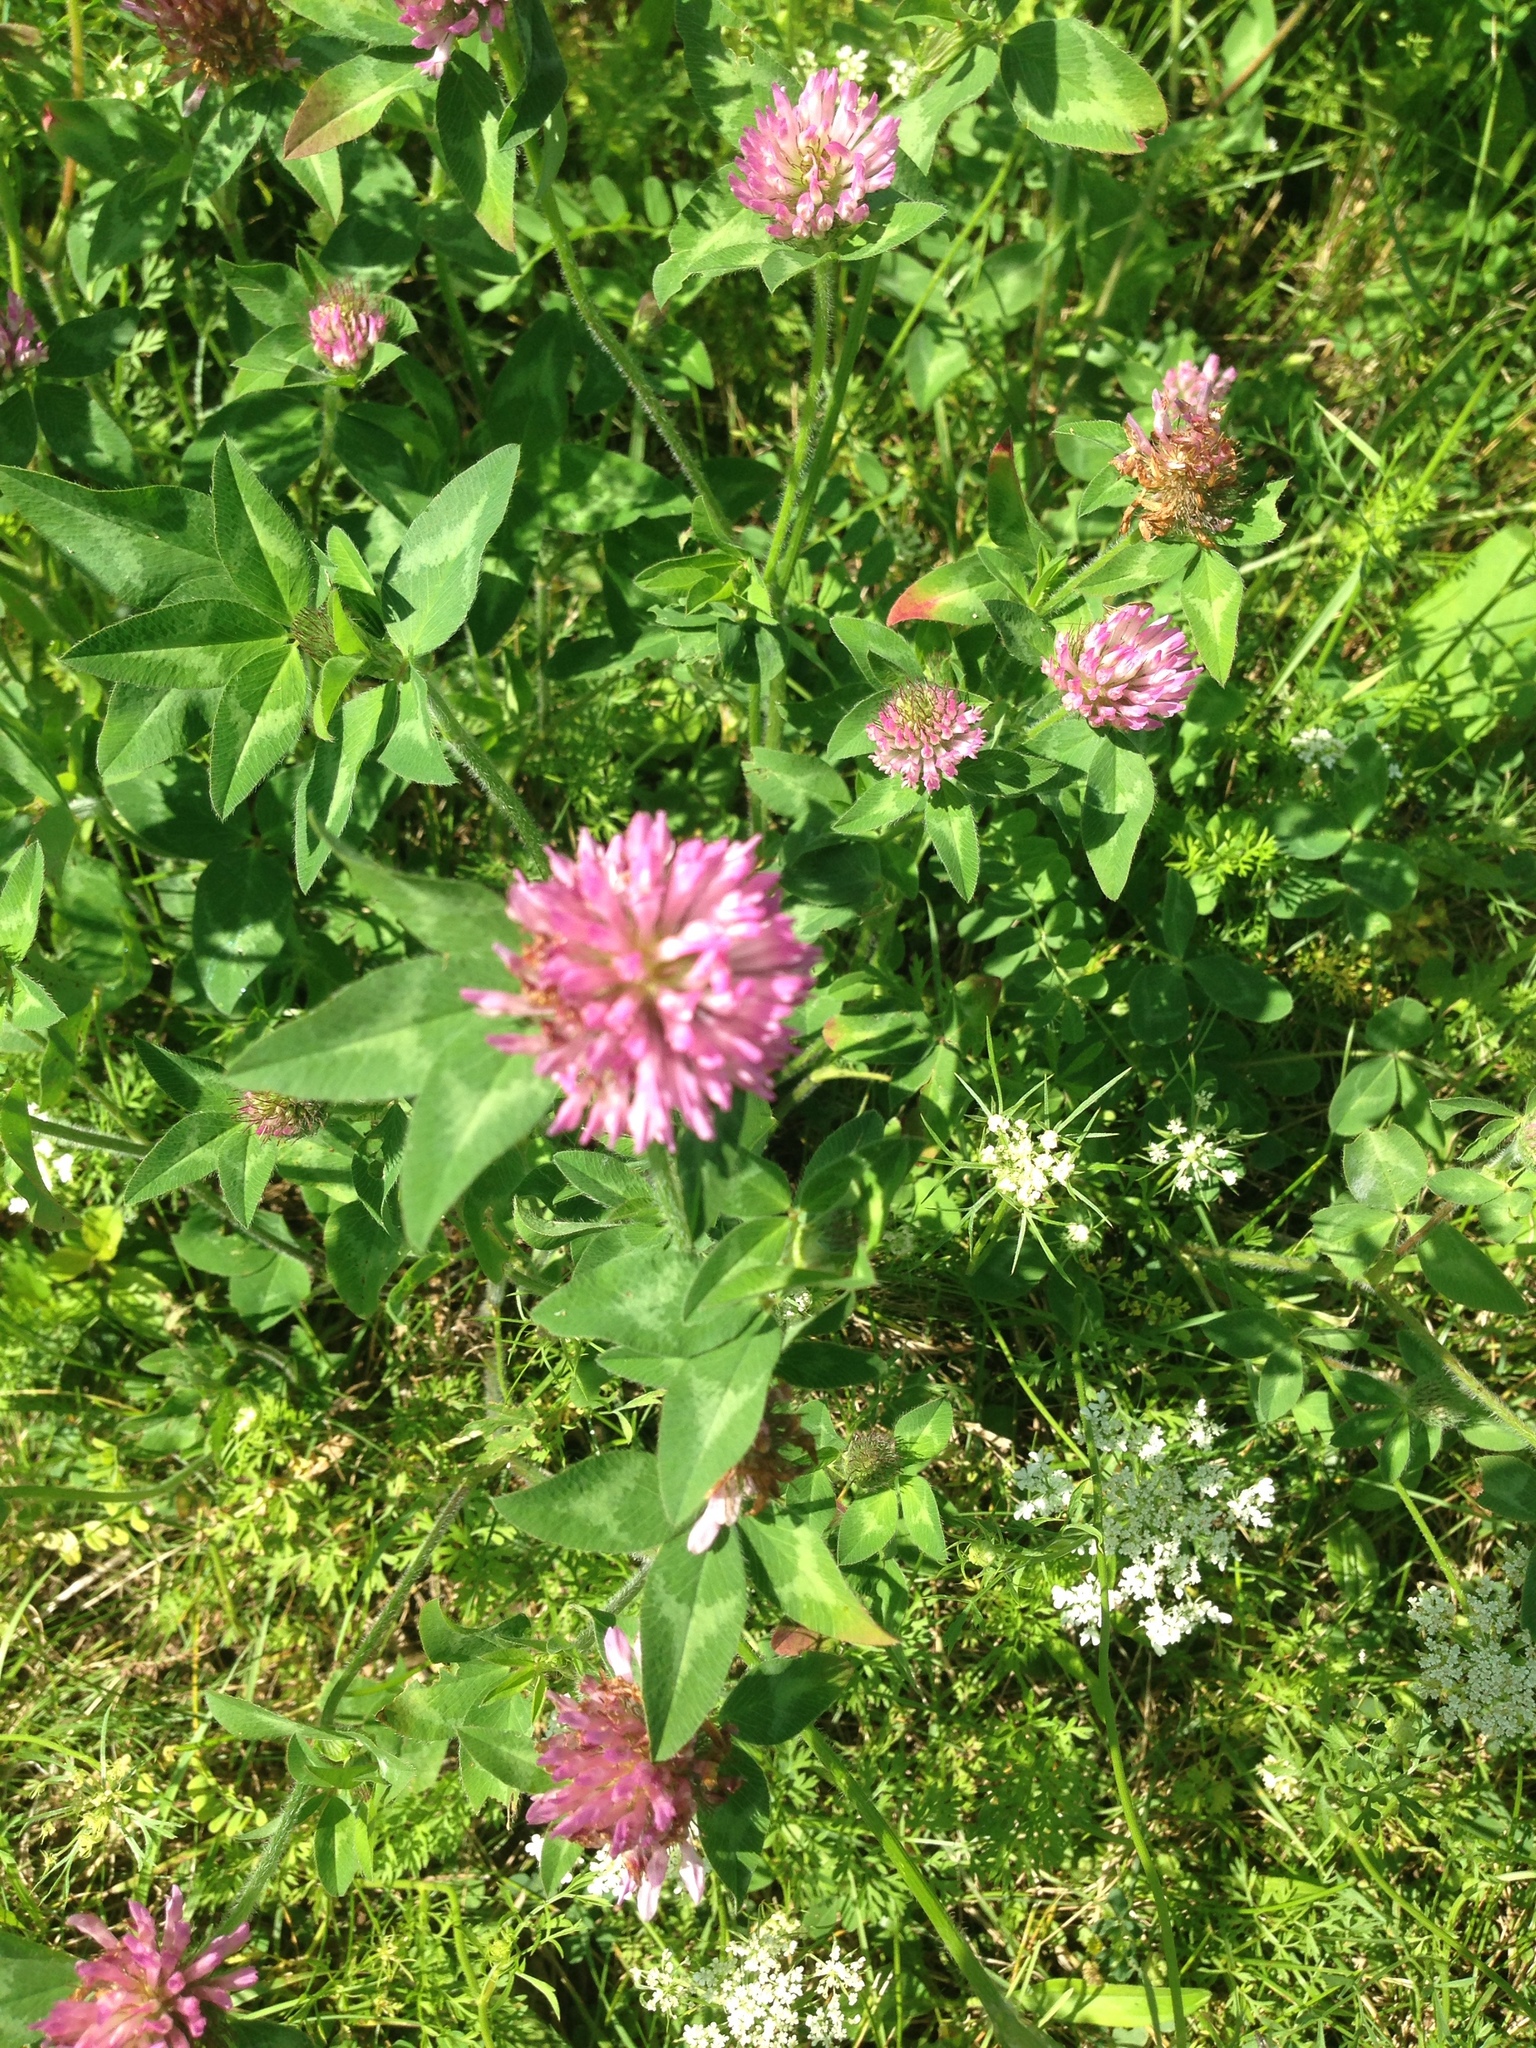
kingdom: Plantae
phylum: Tracheophyta
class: Magnoliopsida
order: Fabales
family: Fabaceae
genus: Trifolium
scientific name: Trifolium pratense
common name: Red clover
